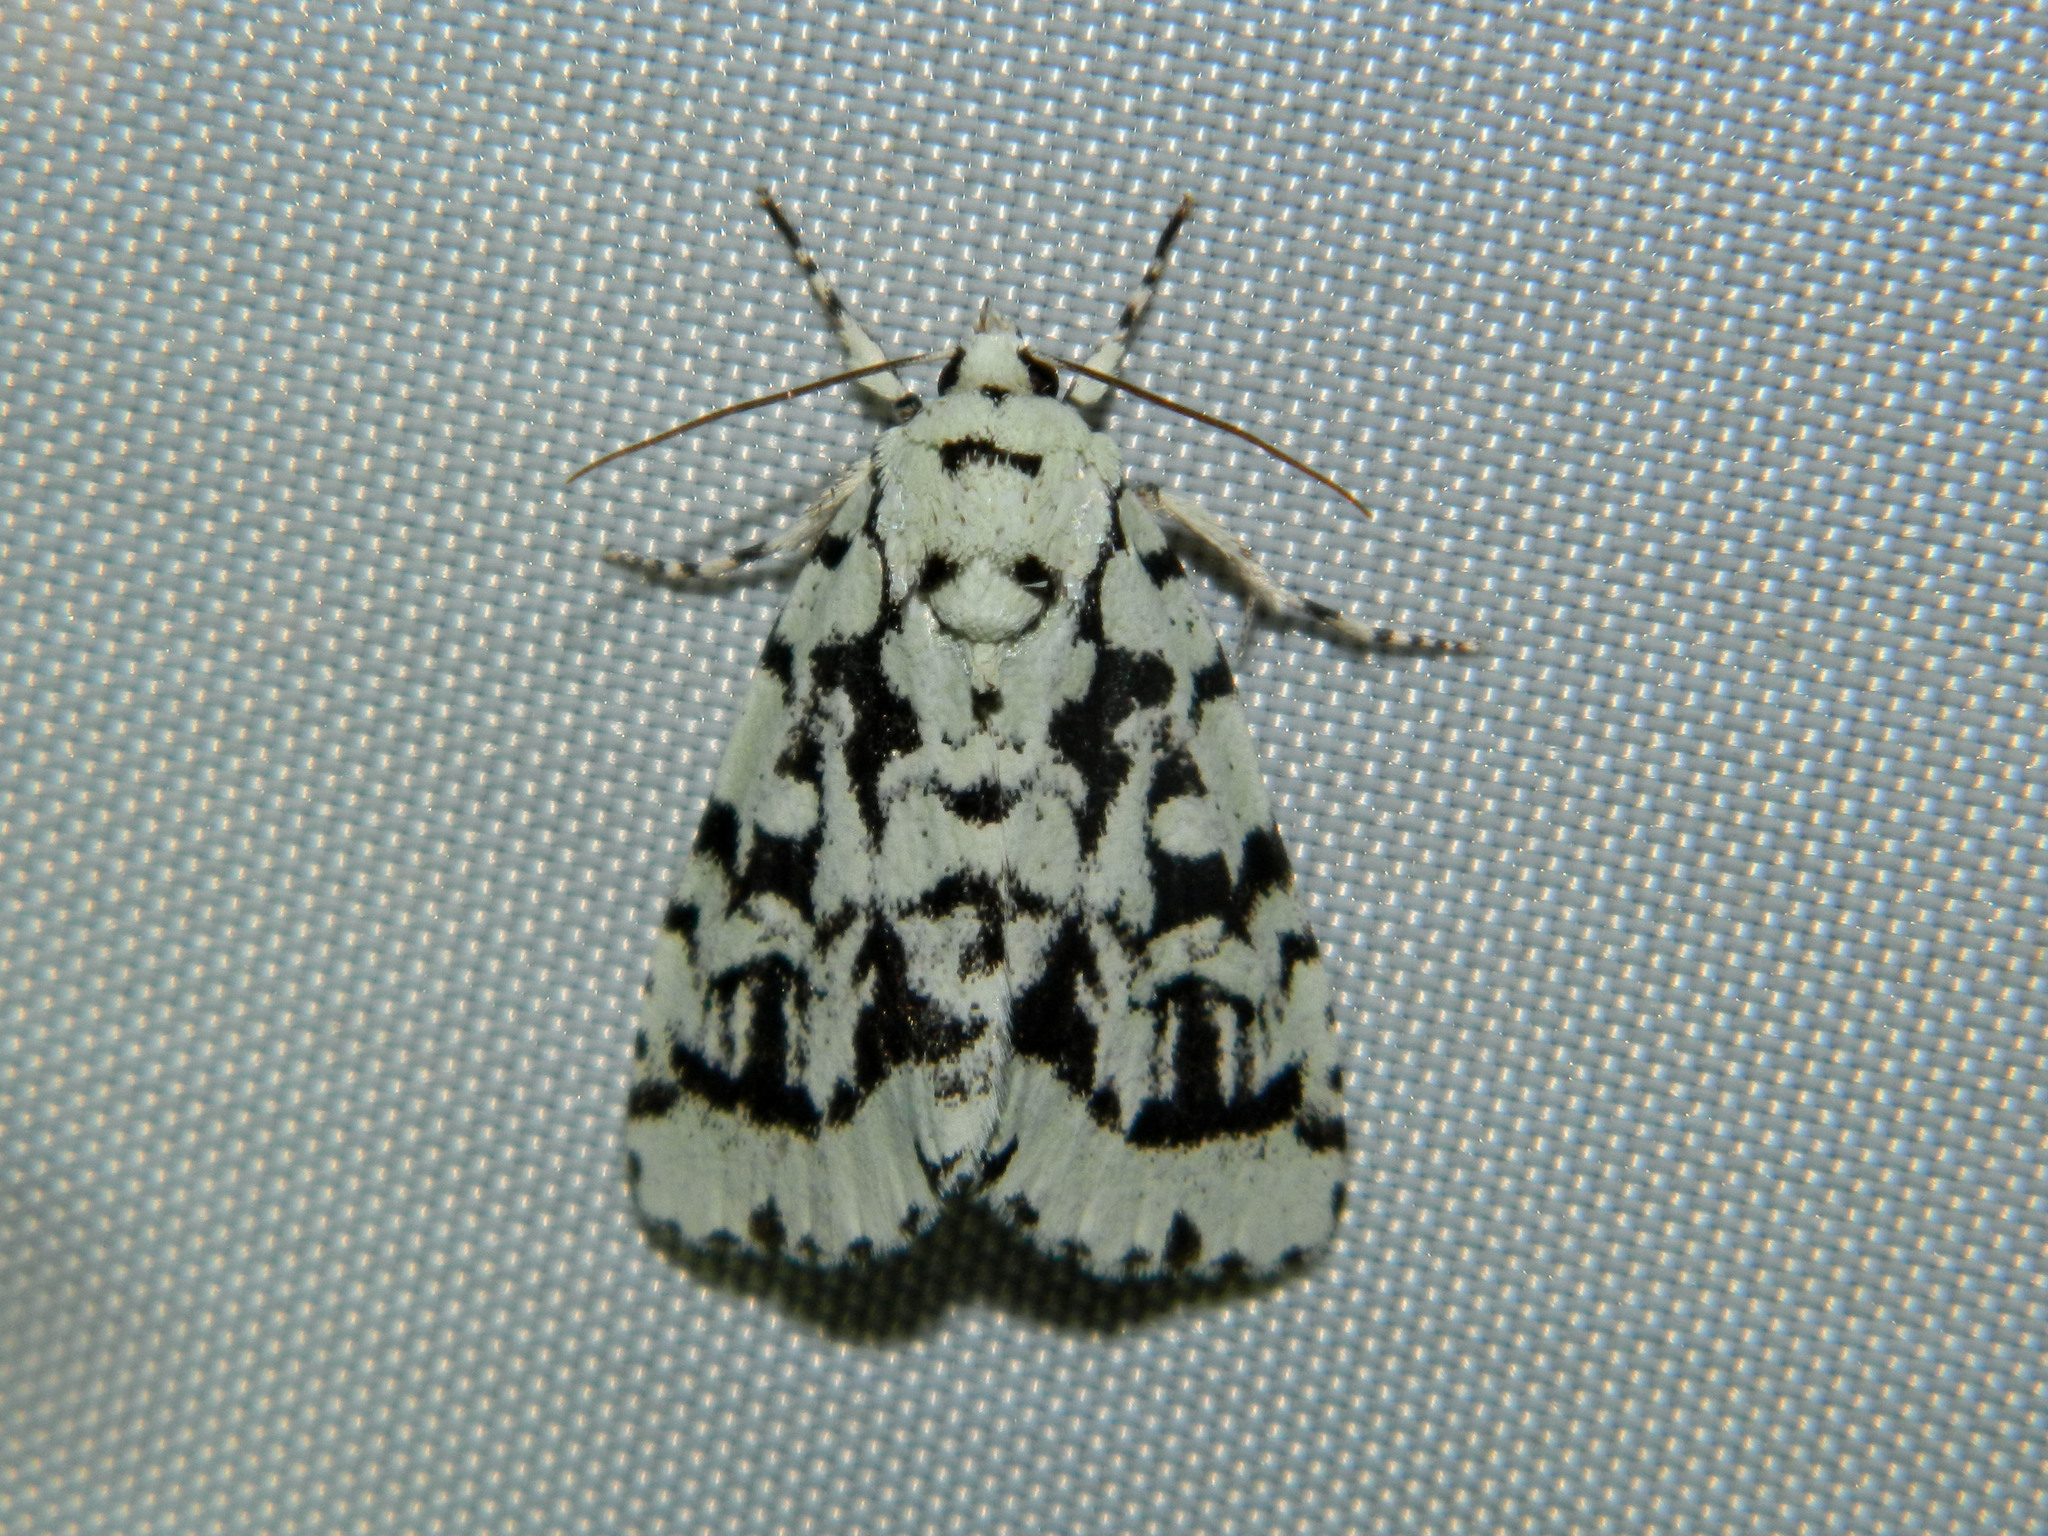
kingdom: Animalia
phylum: Arthropoda
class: Insecta
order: Lepidoptera
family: Noctuidae
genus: Acronicta
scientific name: Acronicta fallax
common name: Green marvel
